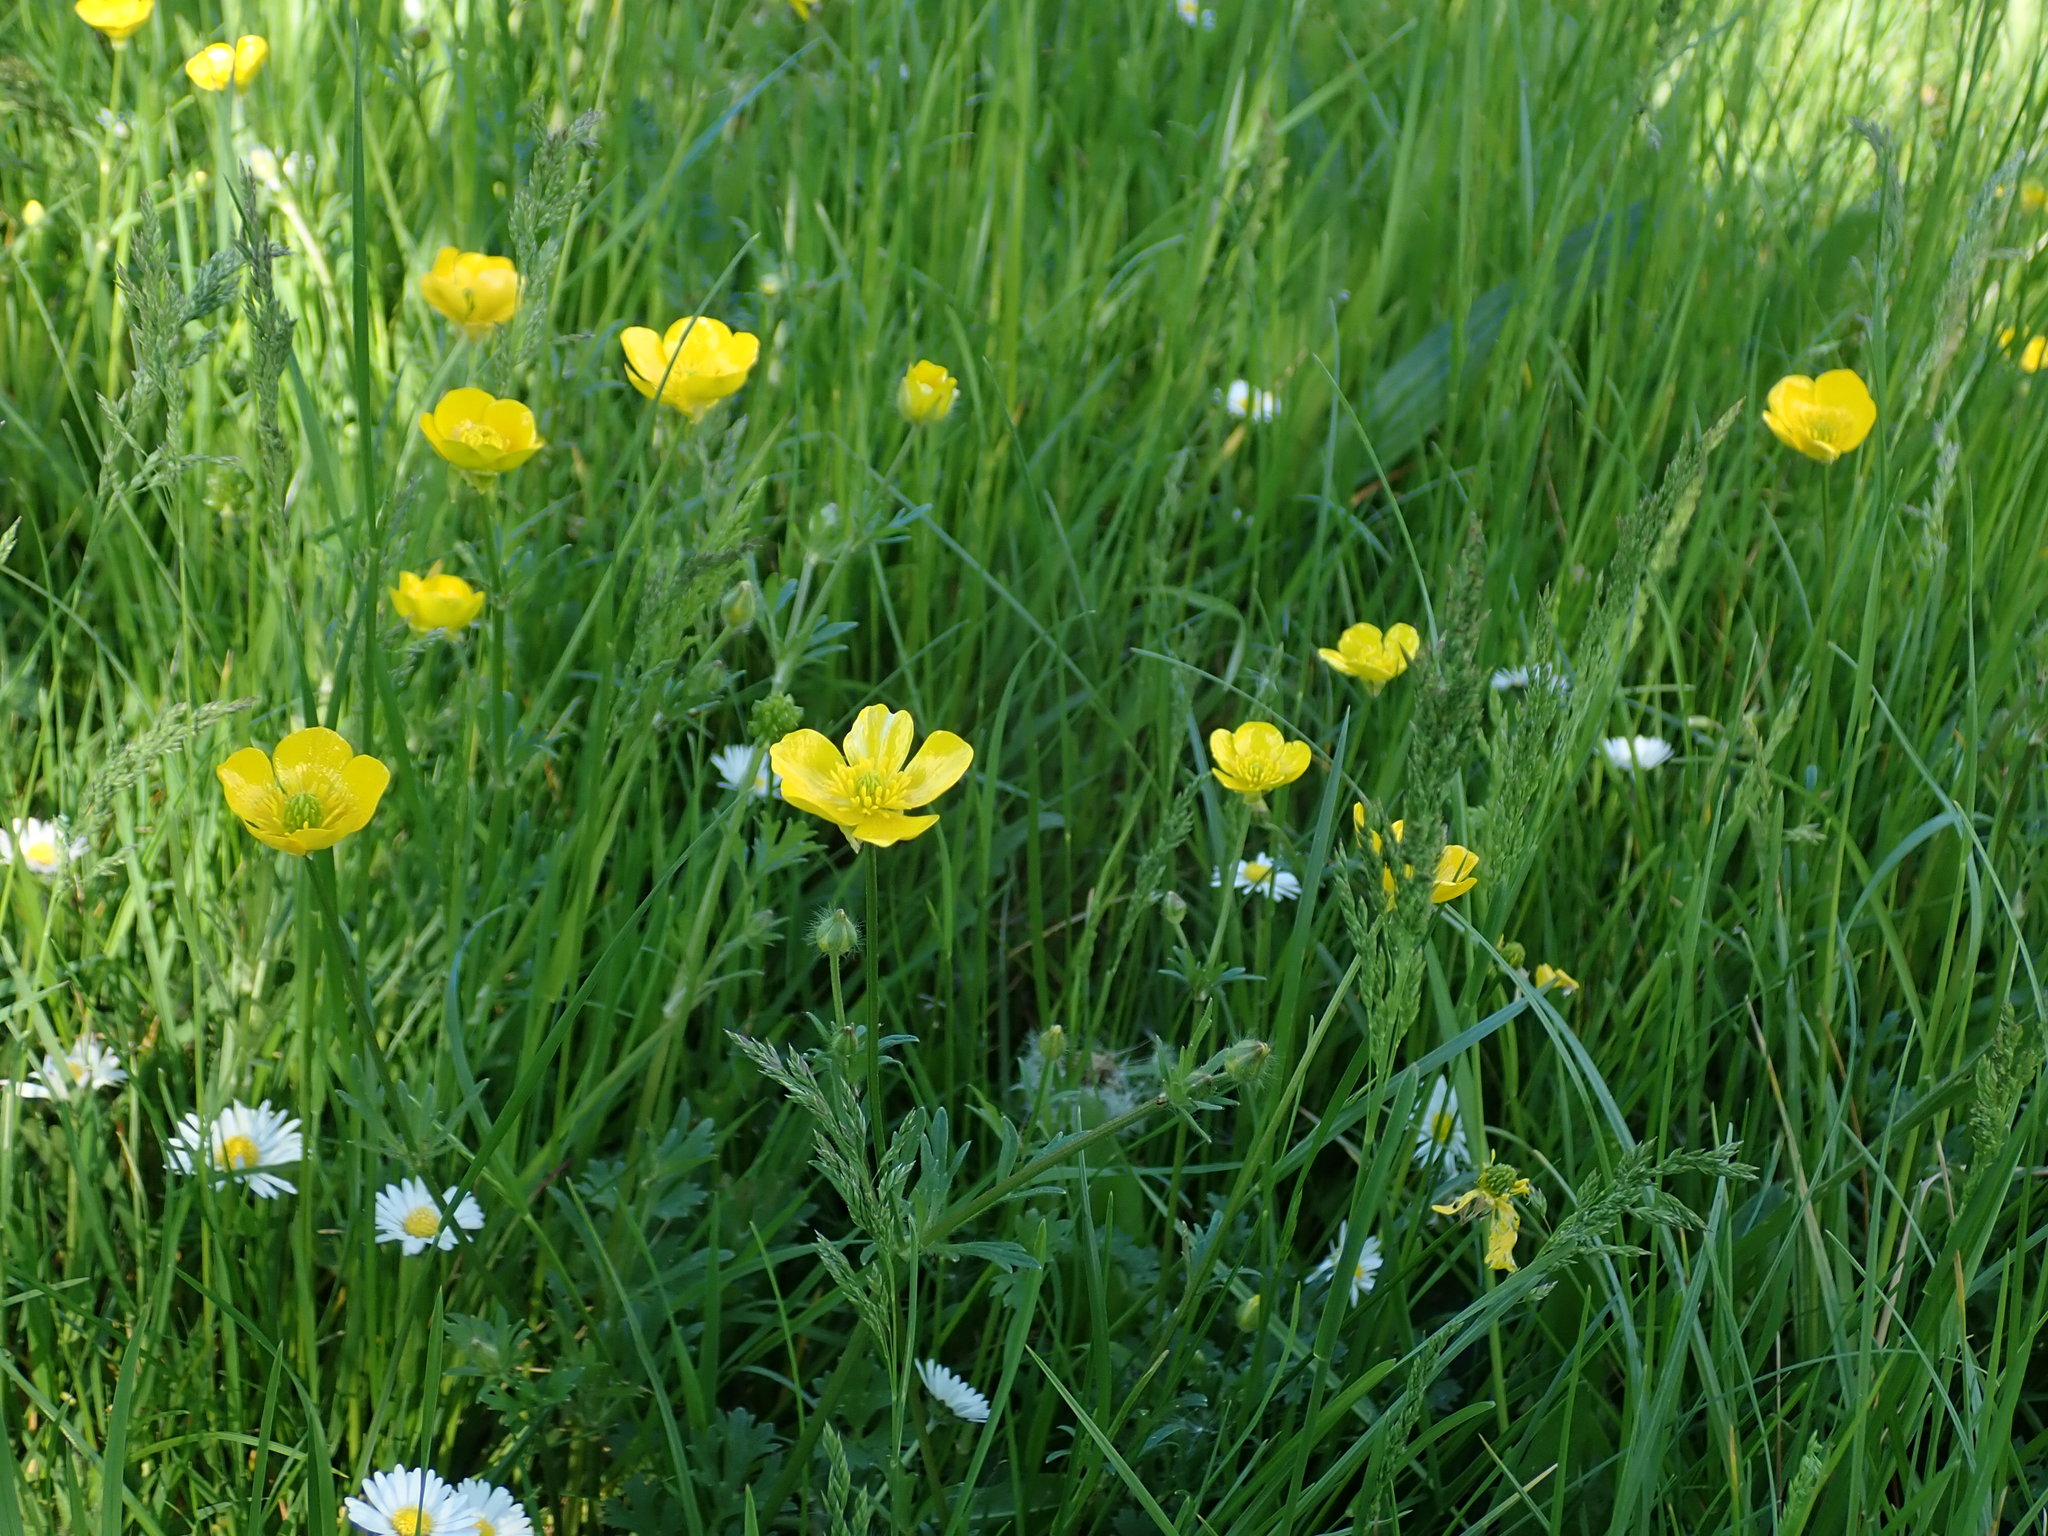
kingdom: Plantae
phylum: Tracheophyta
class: Magnoliopsida
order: Ranunculales
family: Ranunculaceae
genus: Ranunculus
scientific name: Ranunculus bulbosus
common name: Bulbous buttercup
